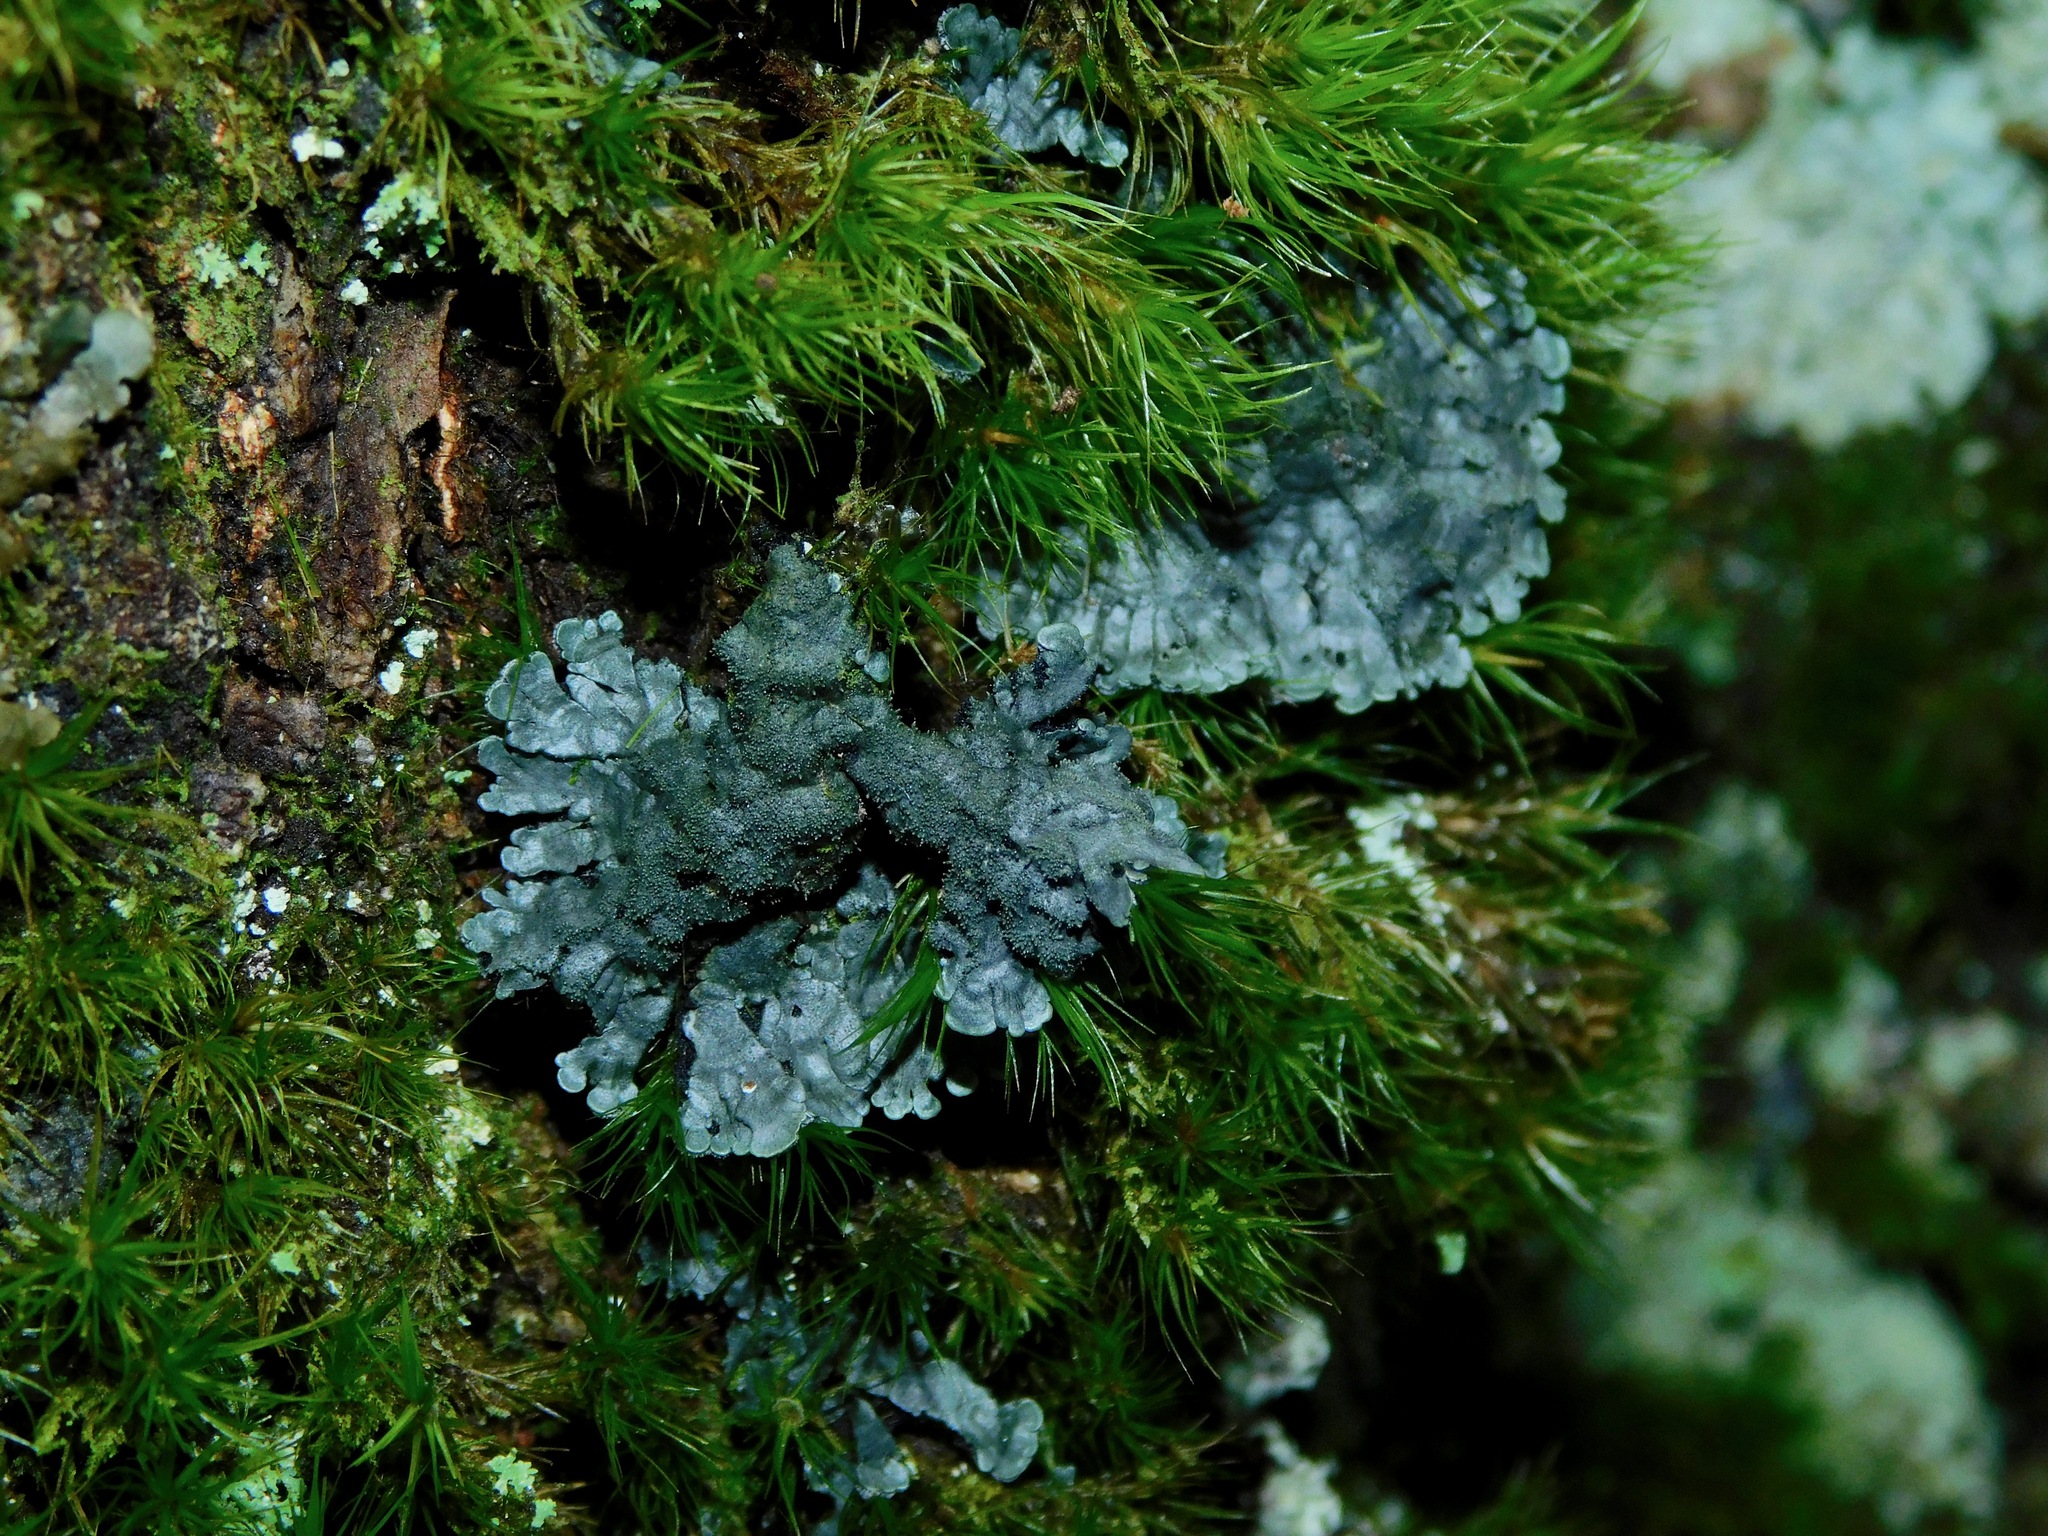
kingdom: Fungi
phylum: Ascomycota
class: Lecanoromycetes
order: Peltigerales
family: Pannariaceae
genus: Pannaria
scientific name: Pannaria tavaresii
